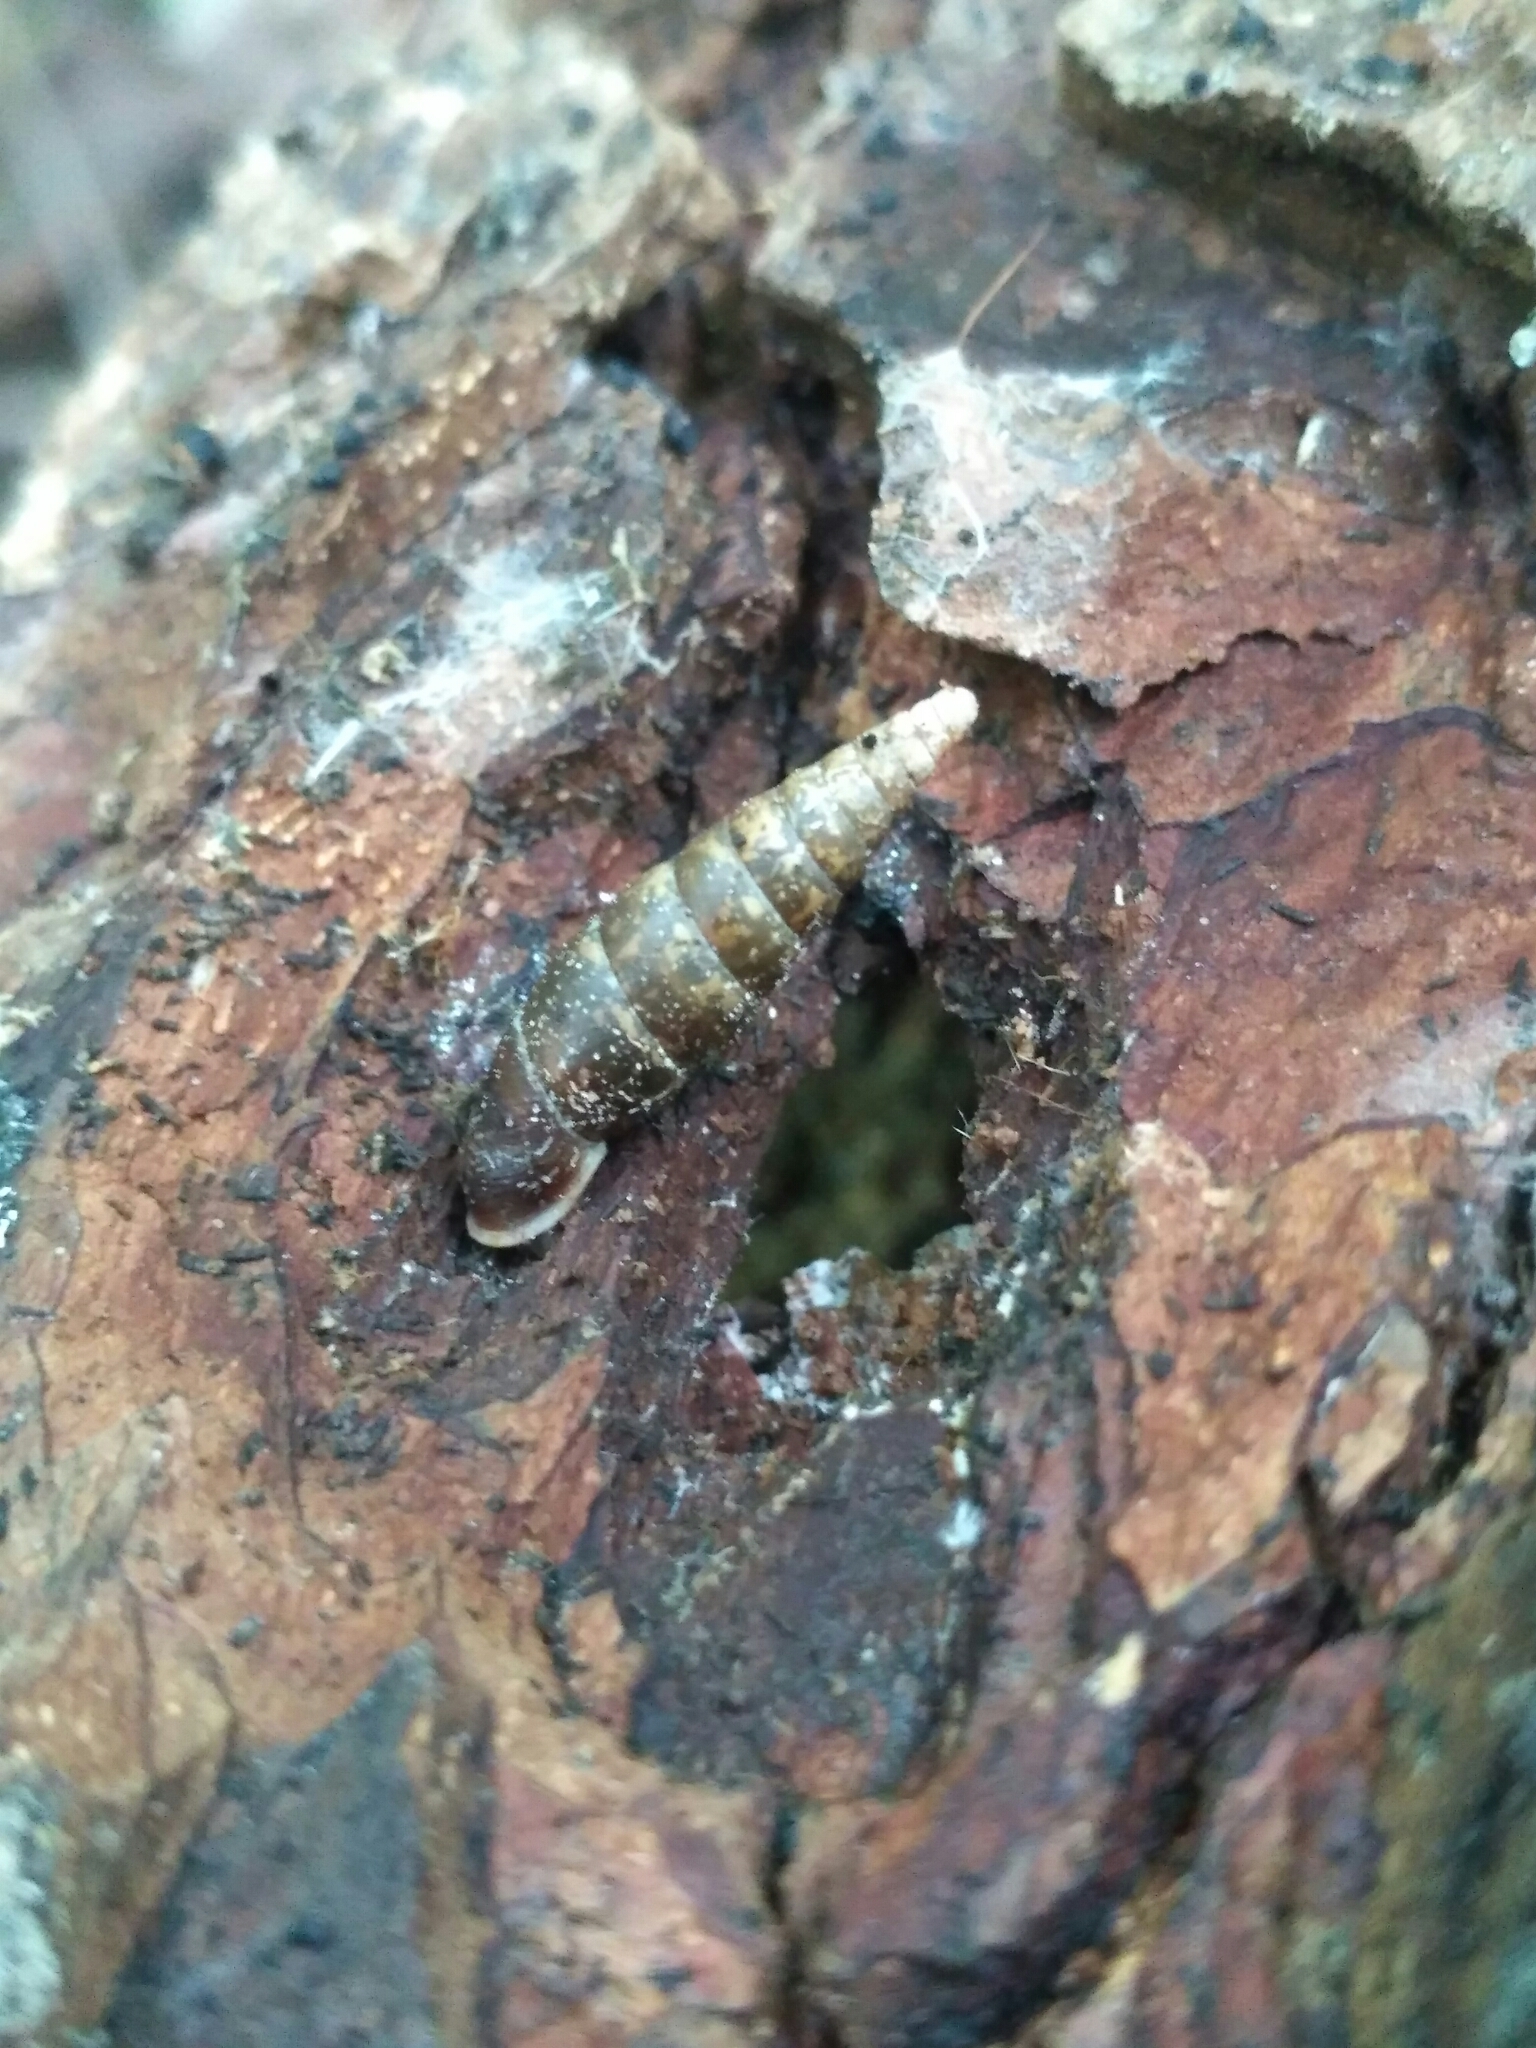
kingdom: Animalia
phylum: Mollusca
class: Gastropoda
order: Stylommatophora
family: Clausiliidae
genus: Cochlodina
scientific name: Cochlodina laminata
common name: Plaited door snail
